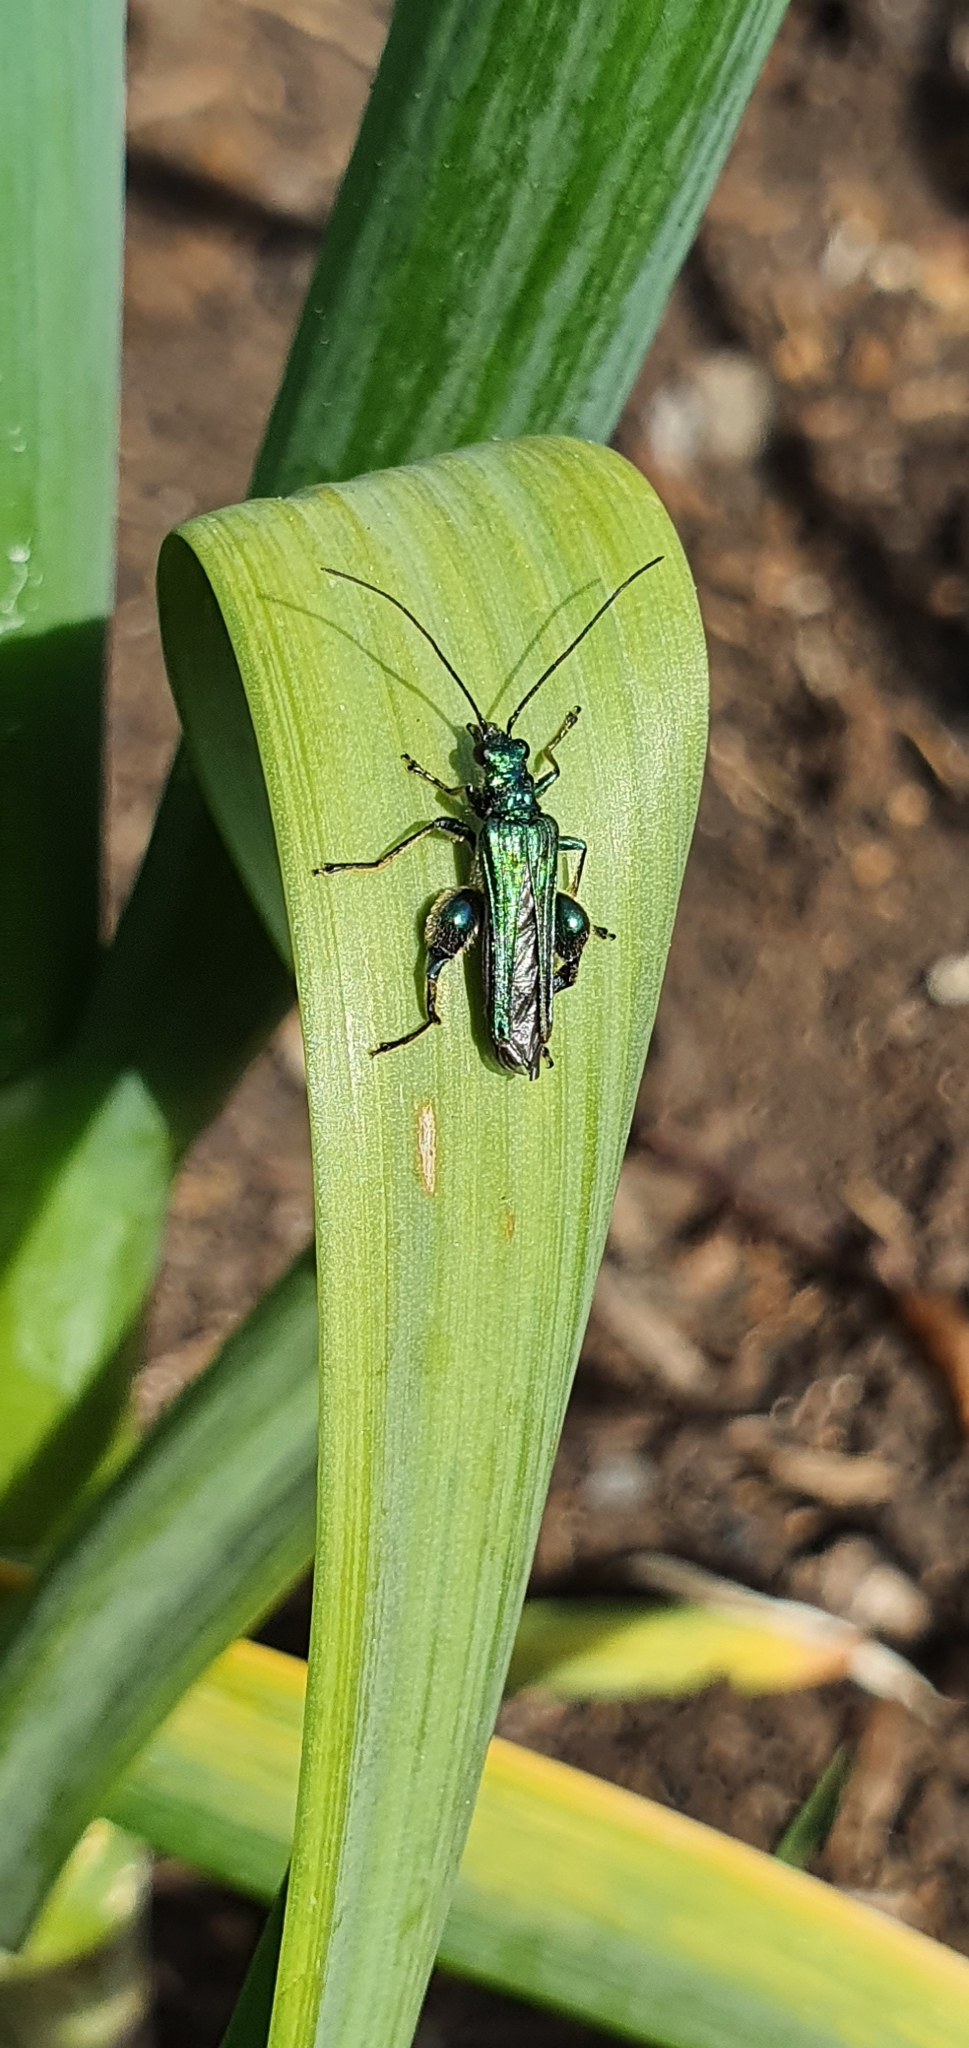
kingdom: Animalia
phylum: Arthropoda
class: Insecta
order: Coleoptera
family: Oedemeridae
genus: Oedemera
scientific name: Oedemera nobilis
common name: Swollen-thighed beetle
